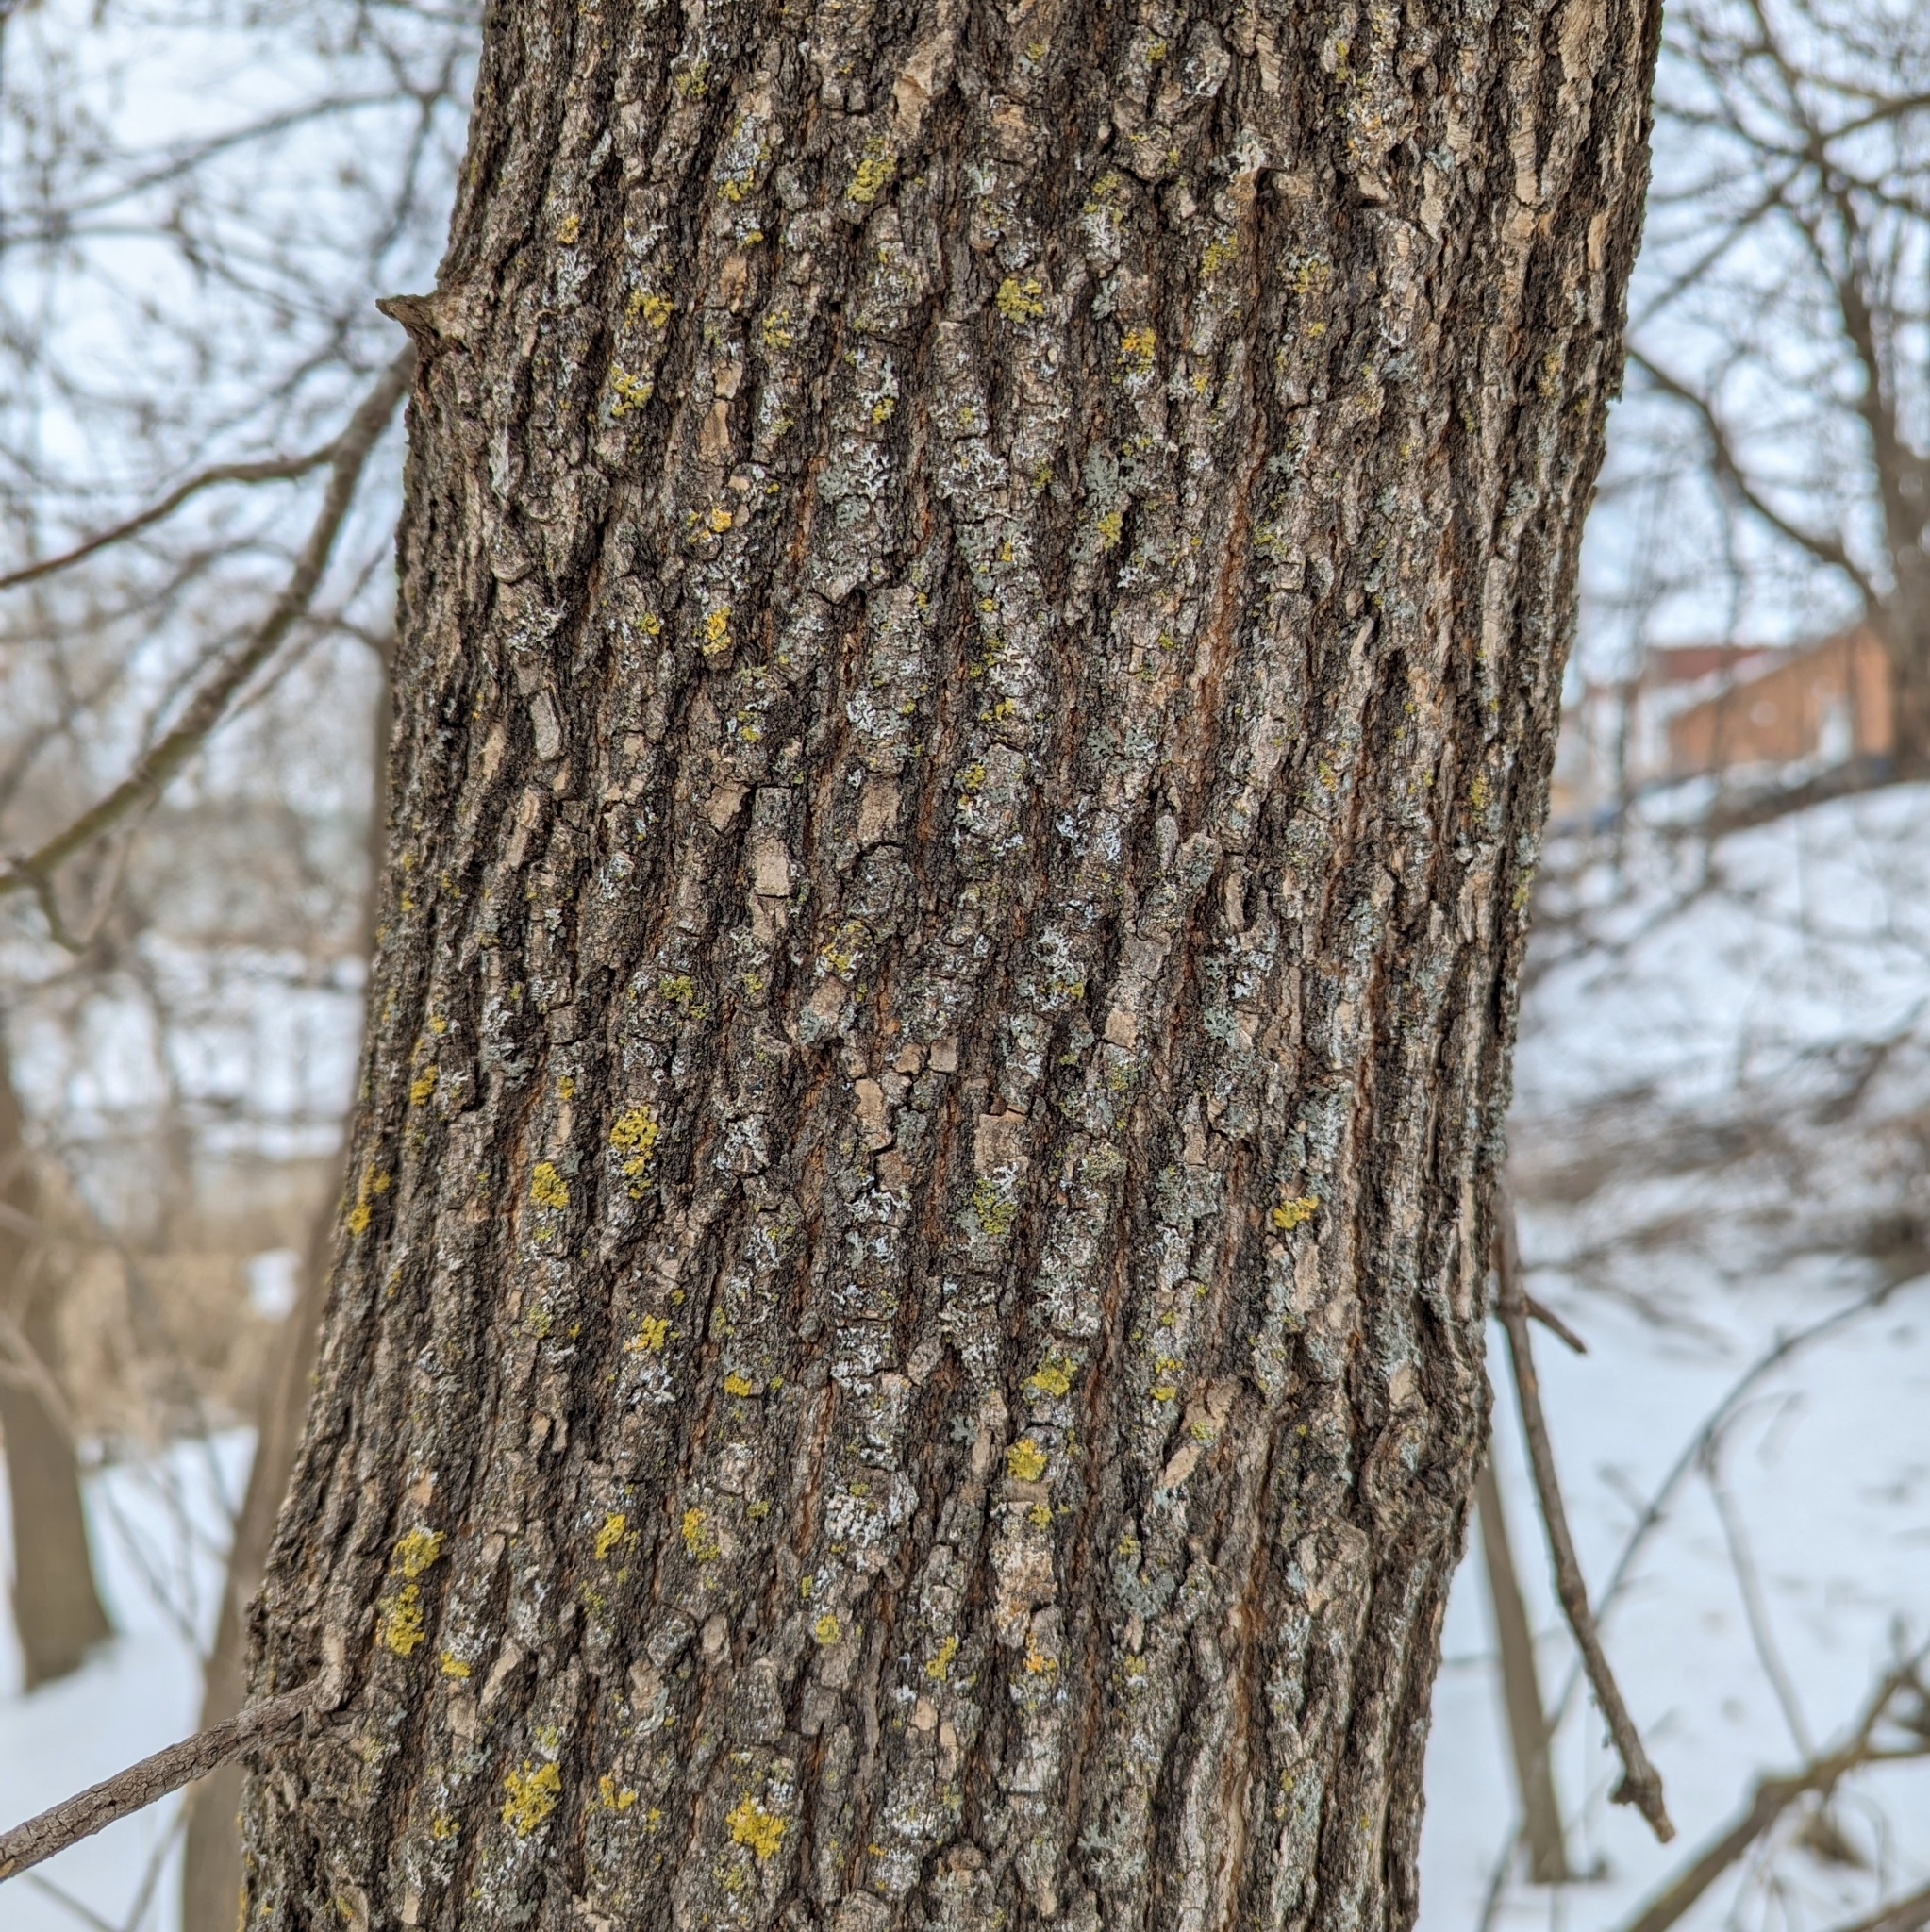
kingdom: Plantae
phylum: Tracheophyta
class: Magnoliopsida
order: Sapindales
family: Sapindaceae
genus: Acer
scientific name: Acer negundo
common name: Ashleaf maple
